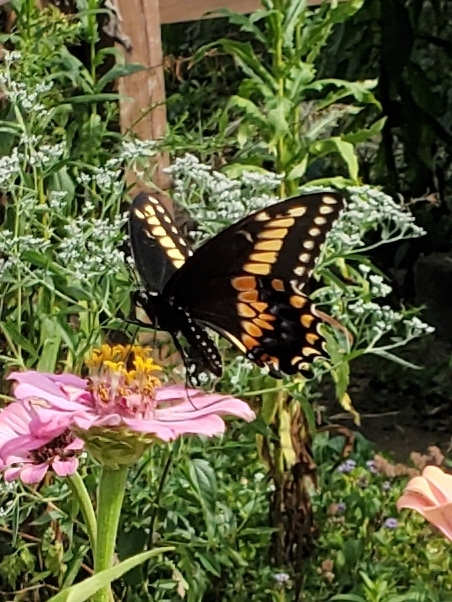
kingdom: Animalia
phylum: Arthropoda
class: Insecta
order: Lepidoptera
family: Papilionidae
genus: Papilio
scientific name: Papilio polyxenes
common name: Black swallowtail
